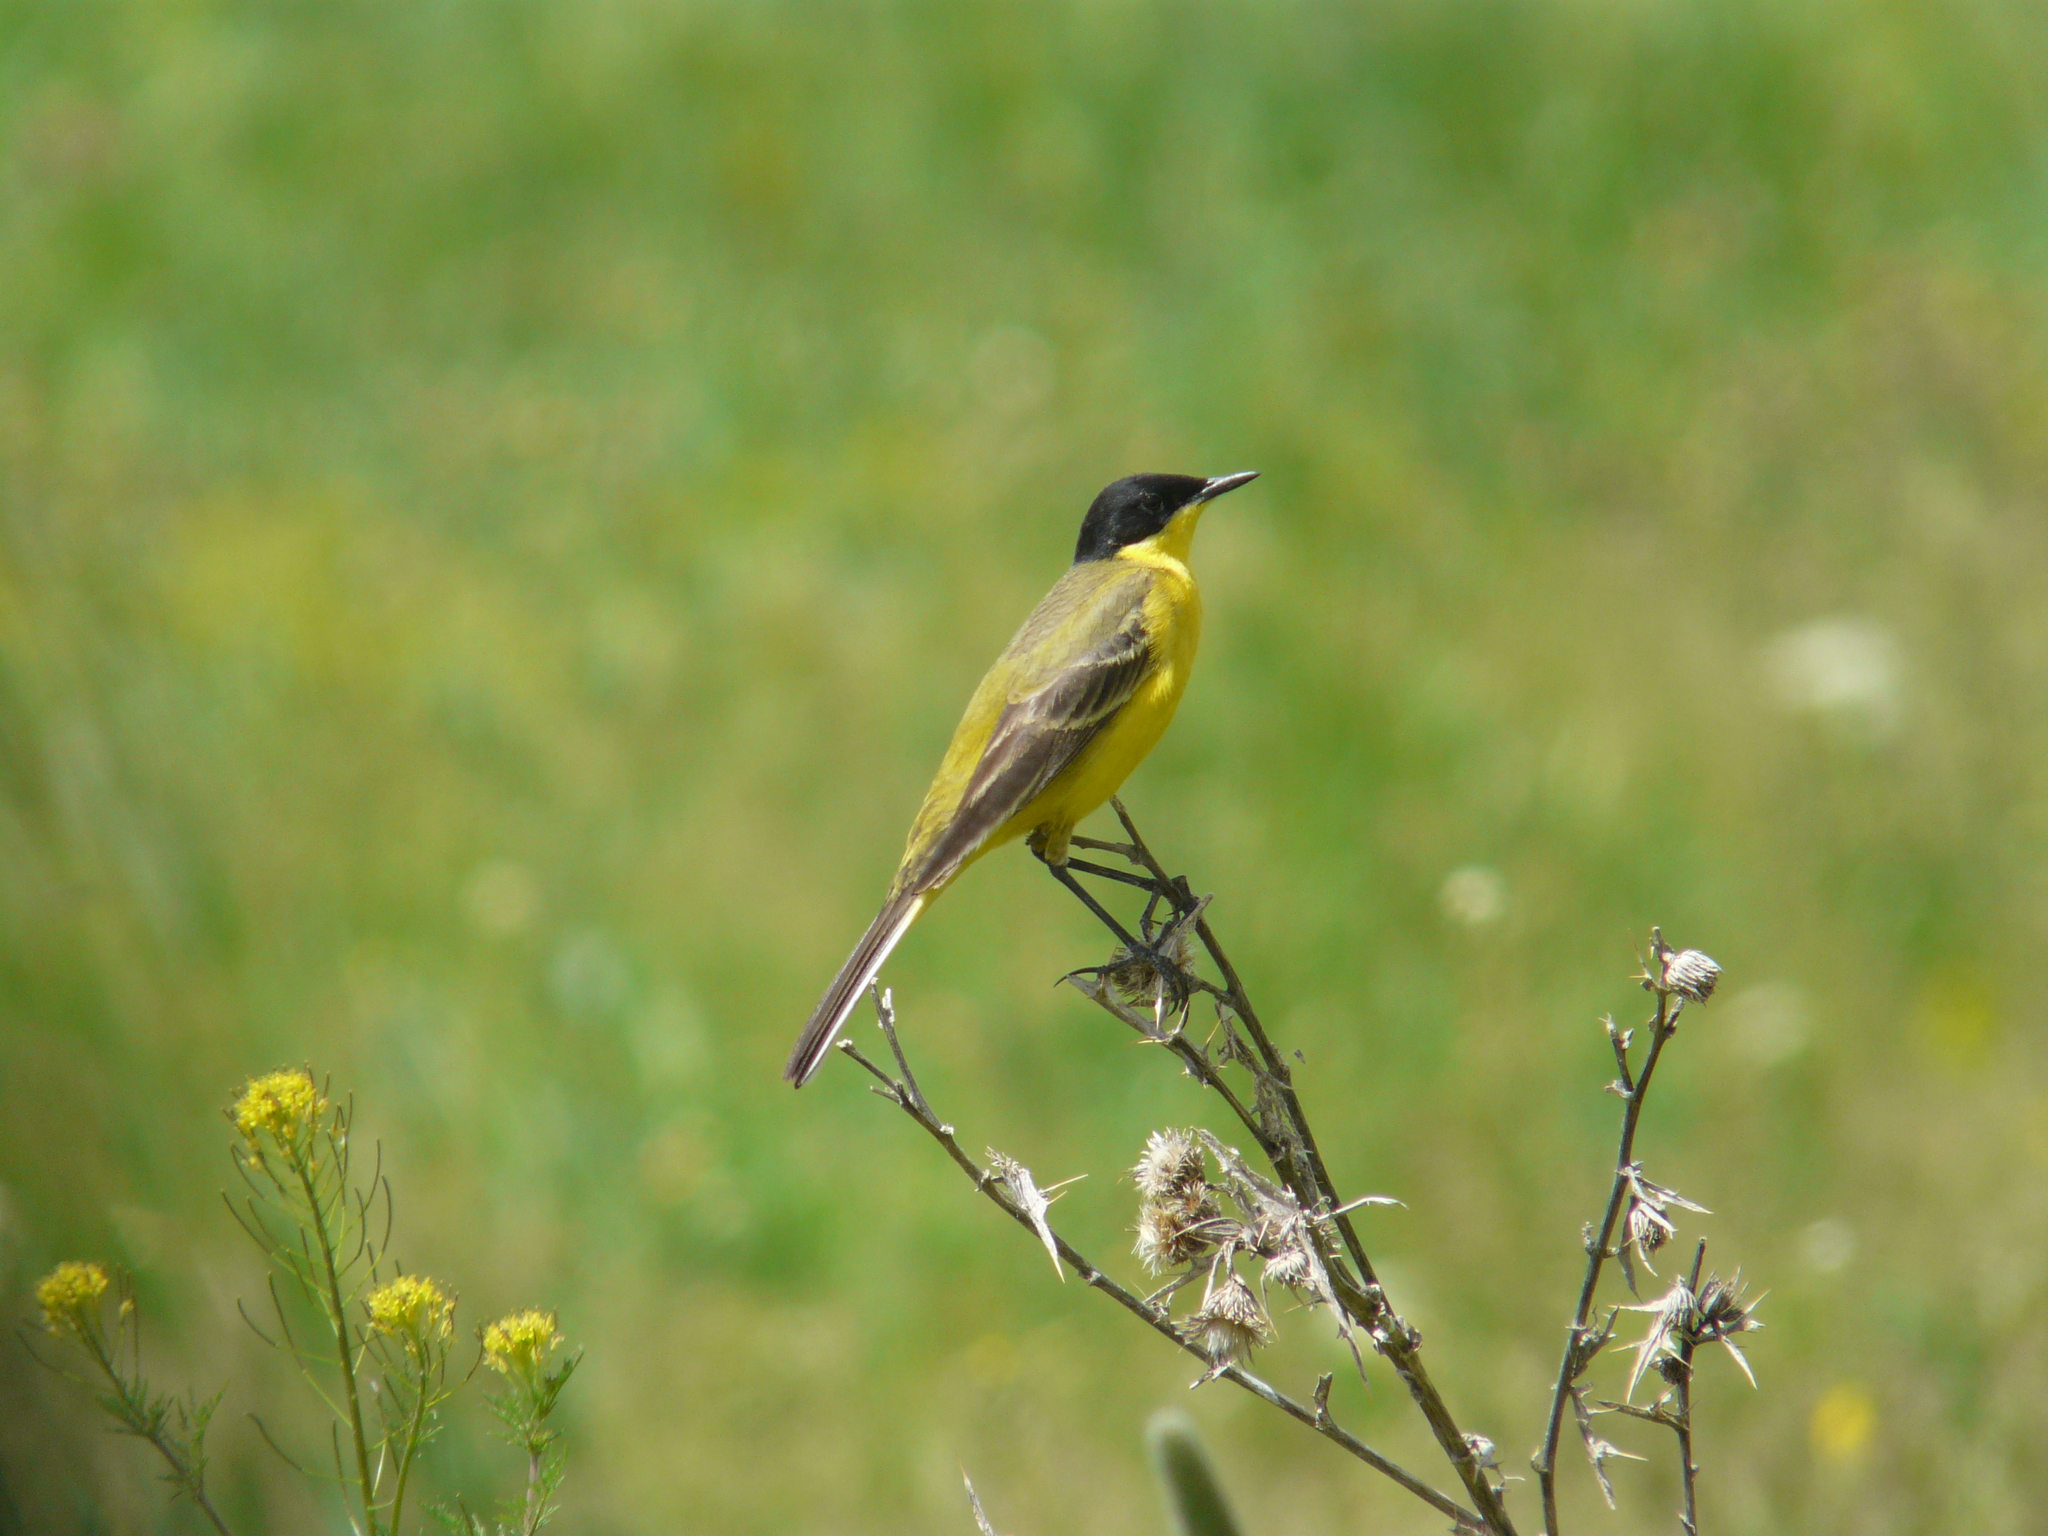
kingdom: Animalia
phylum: Chordata
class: Aves
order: Passeriformes
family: Motacillidae
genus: Motacilla
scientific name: Motacilla flava
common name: Western yellow wagtail
